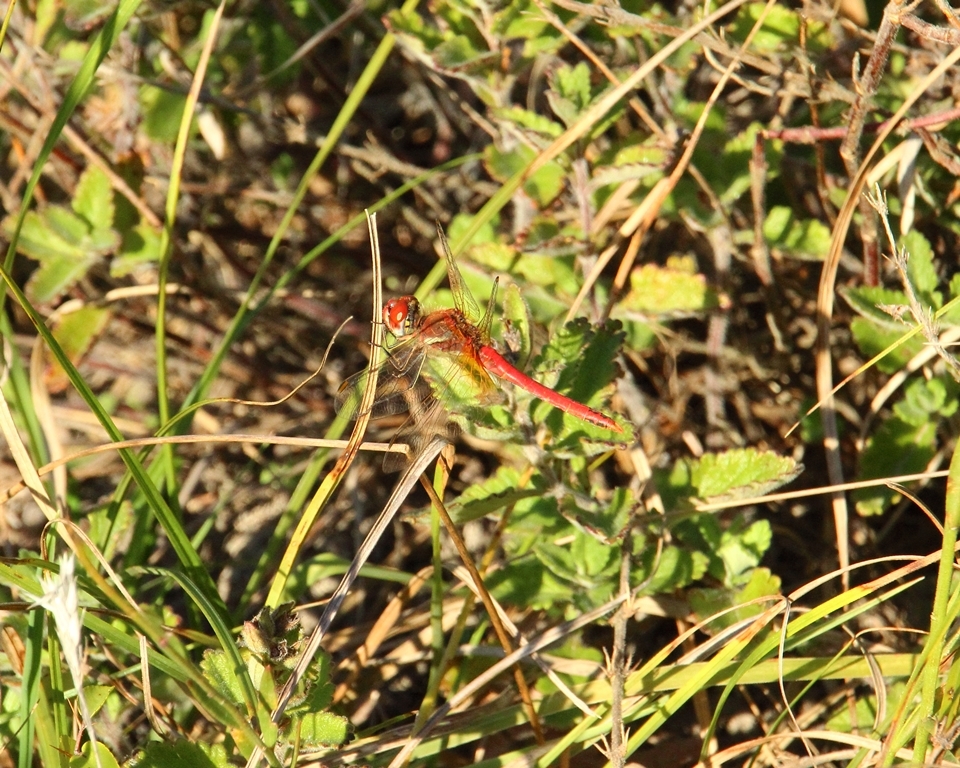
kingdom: Animalia
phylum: Arthropoda
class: Insecta
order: Odonata
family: Libellulidae
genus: Sympetrum
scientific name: Sympetrum fonscolombii
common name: Red-veined darter
